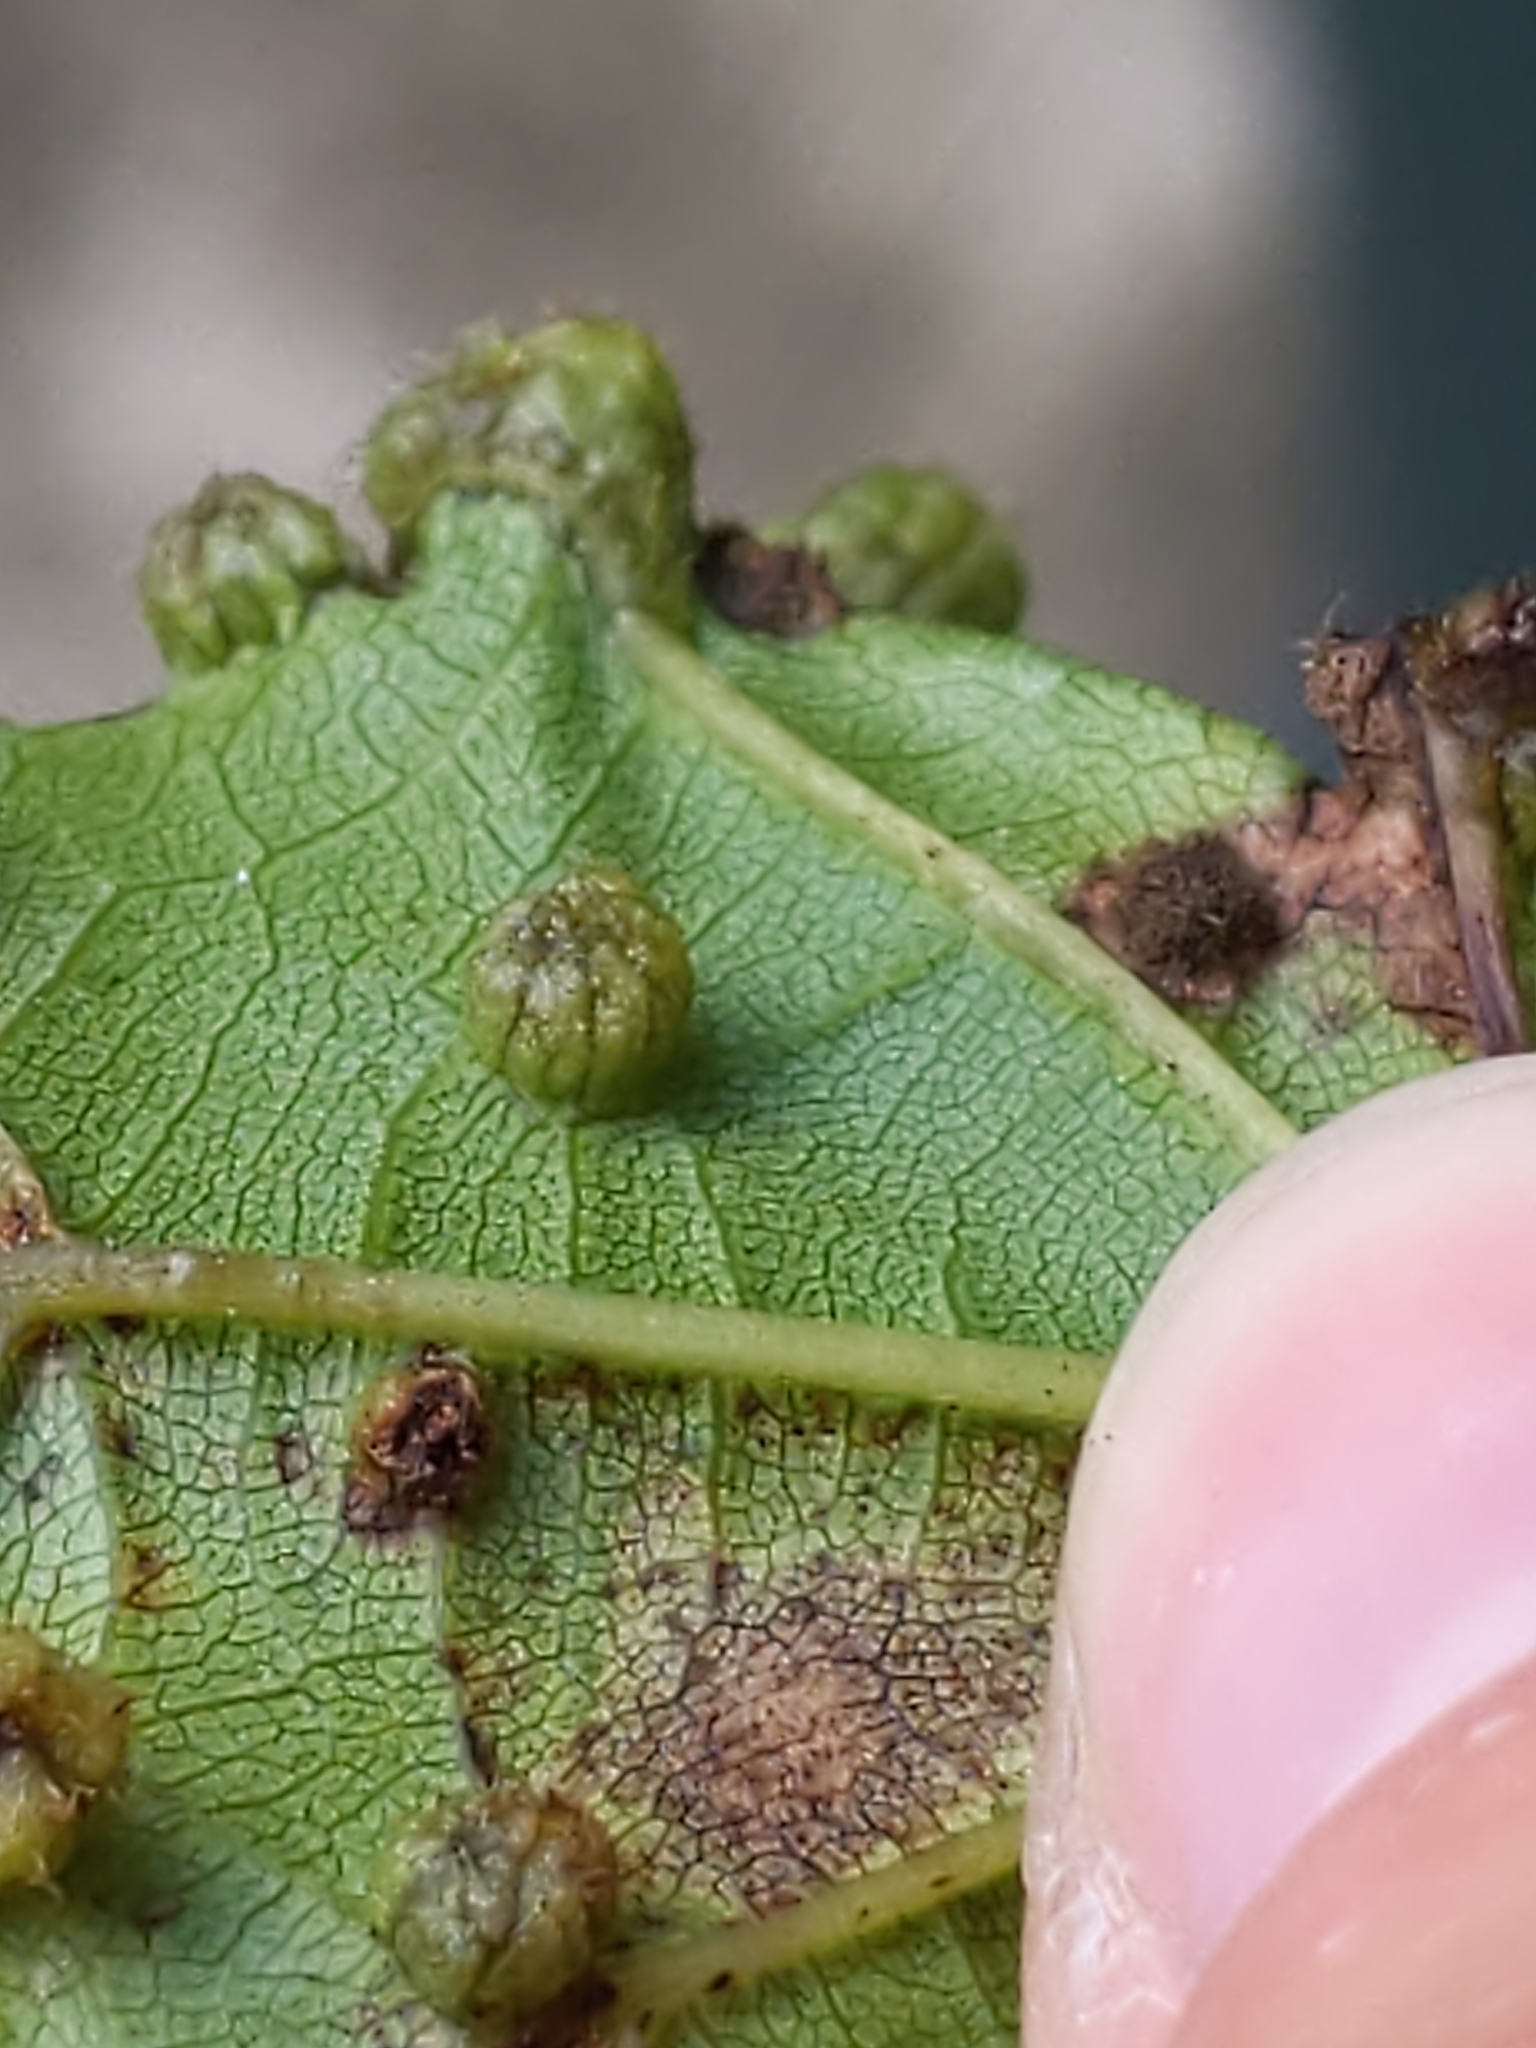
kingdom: Animalia
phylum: Arthropoda
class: Insecta
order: Hemiptera
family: Phylloxeridae
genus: Daktulosphaira
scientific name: Daktulosphaira vitifoliae
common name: Grape phylloxera
